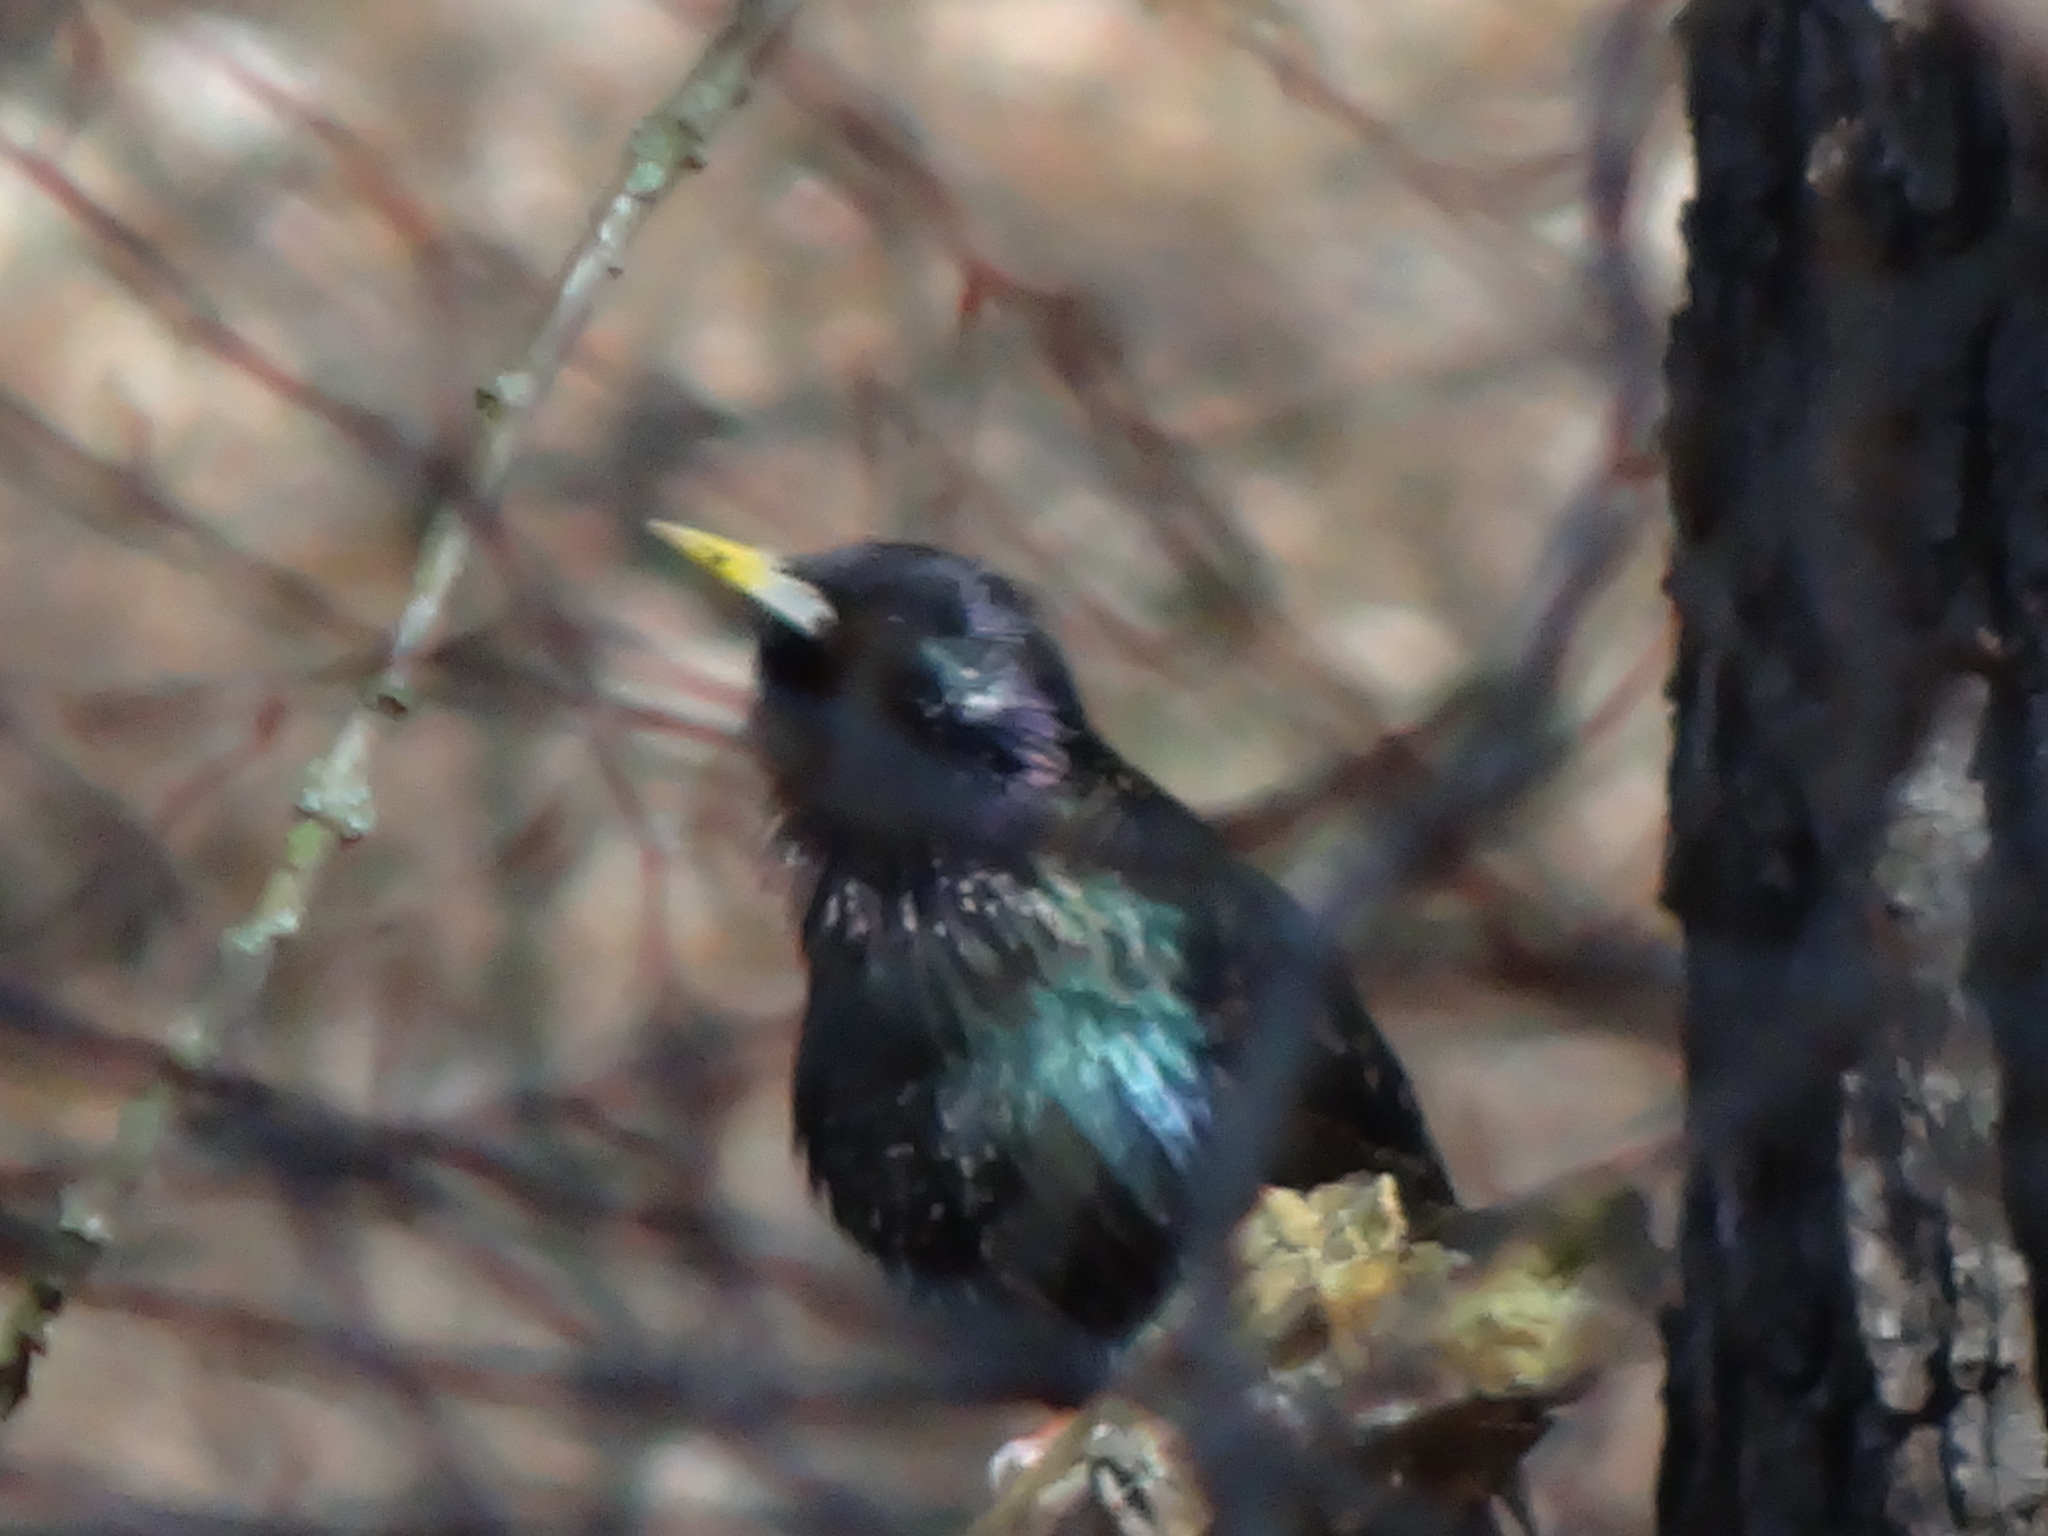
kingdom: Animalia
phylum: Chordata
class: Aves
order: Passeriformes
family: Sturnidae
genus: Sturnus
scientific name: Sturnus vulgaris
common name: Common starling
